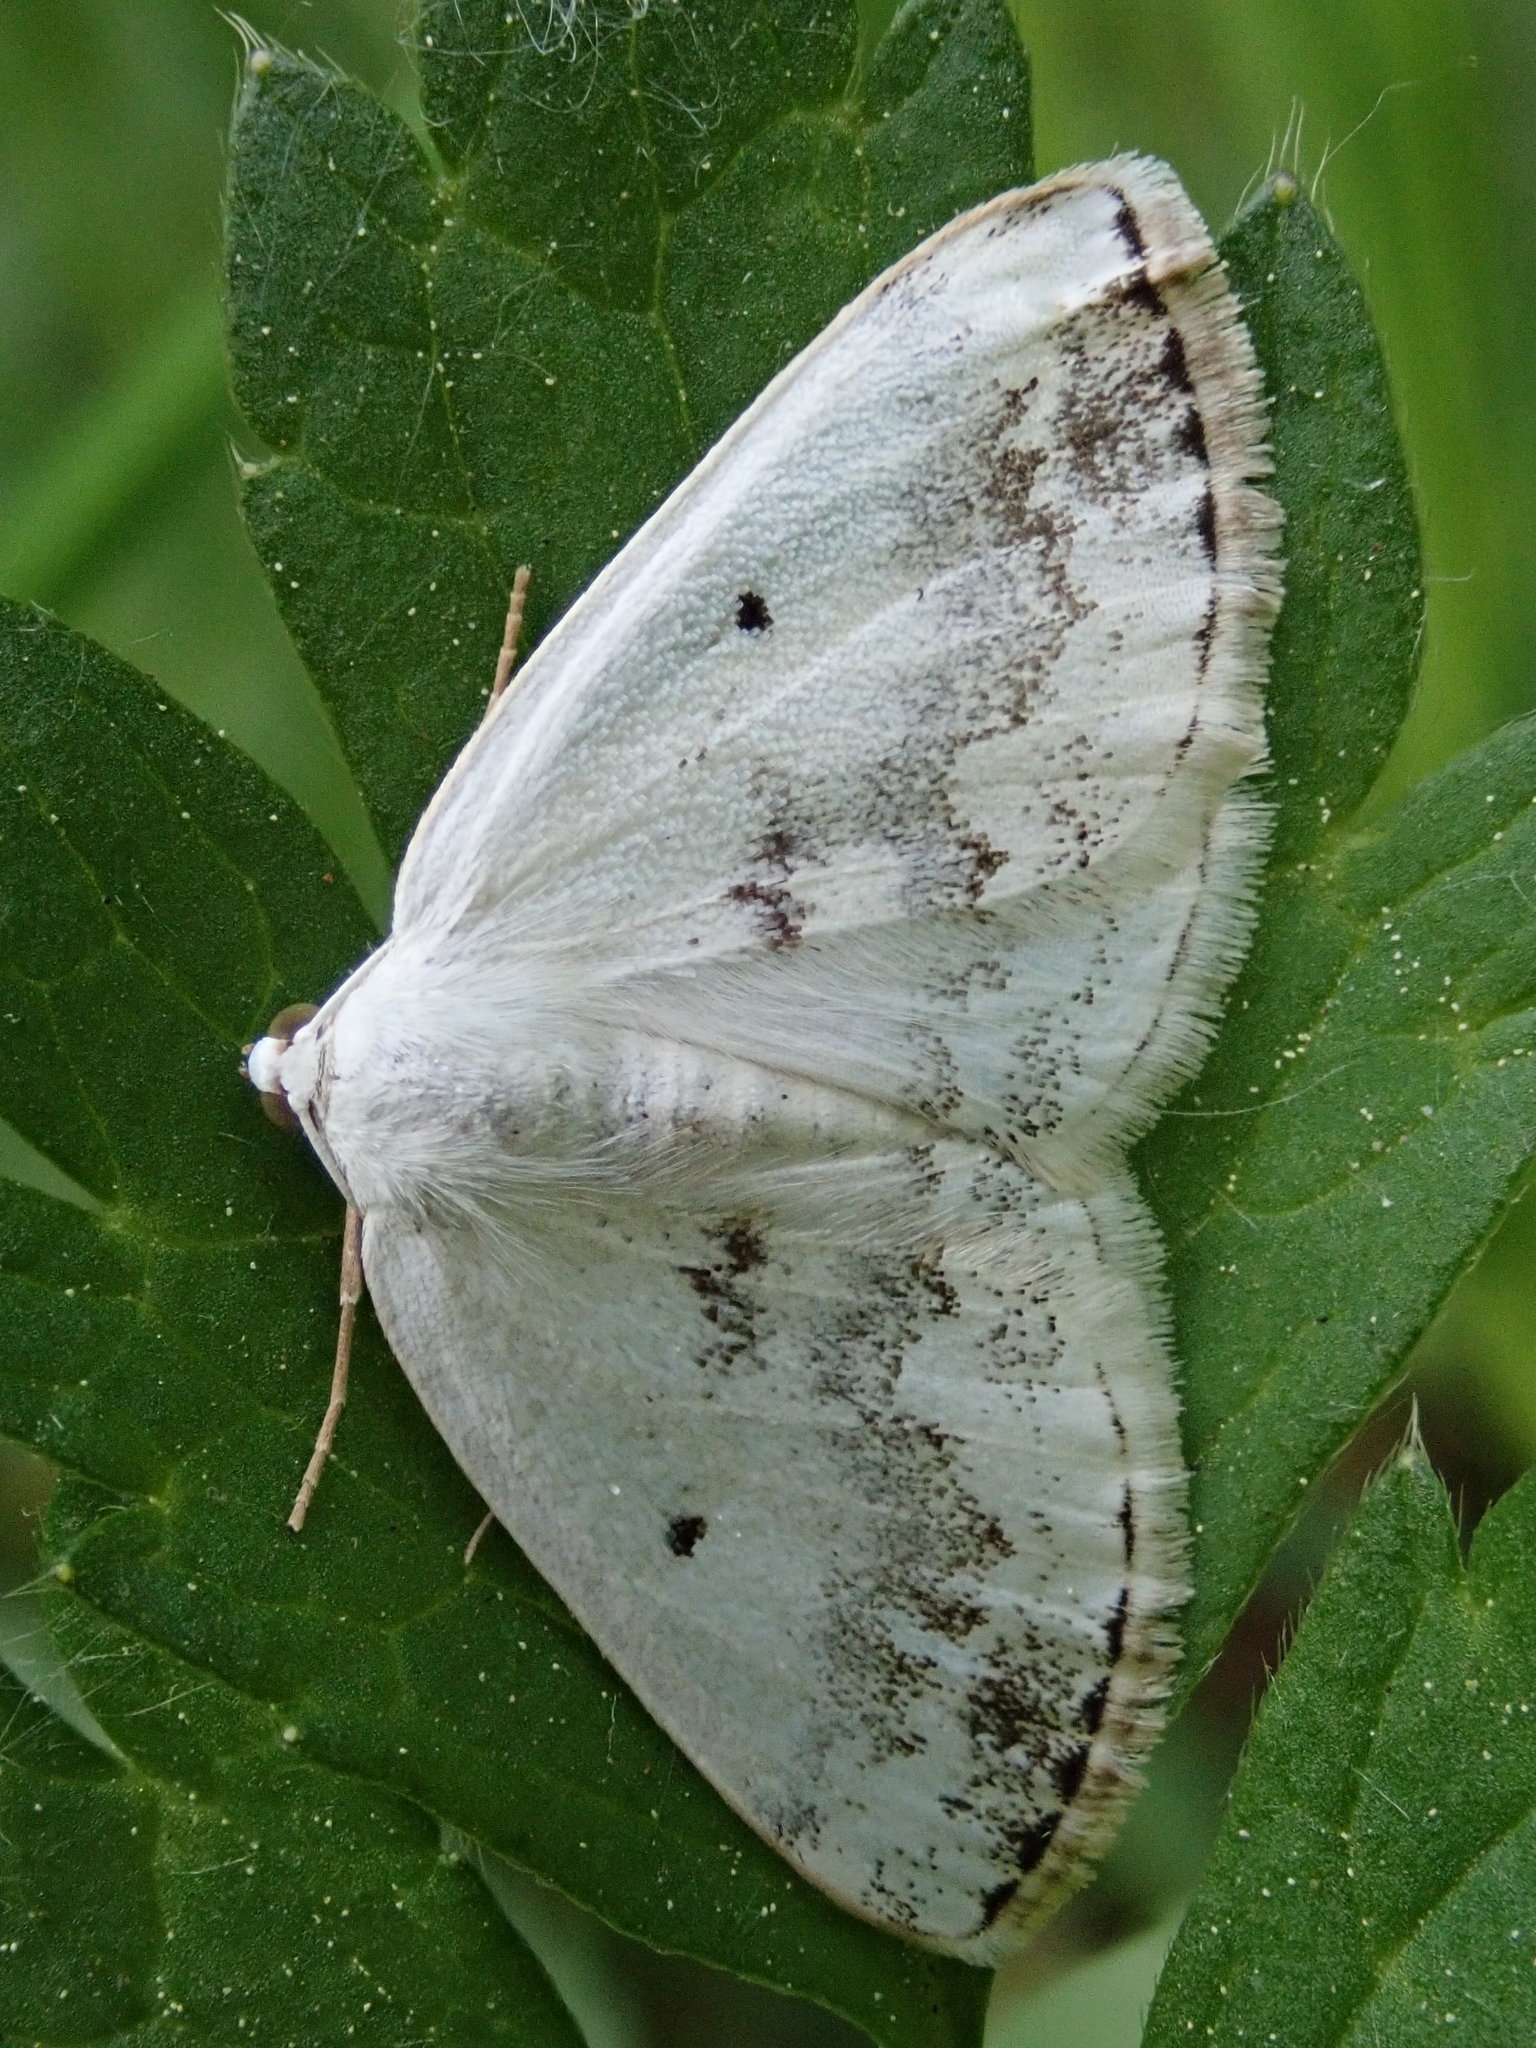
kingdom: Animalia
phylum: Arthropoda
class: Insecta
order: Lepidoptera
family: Geometridae
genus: Lomographa
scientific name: Lomographa temerata
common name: Clouded silver
